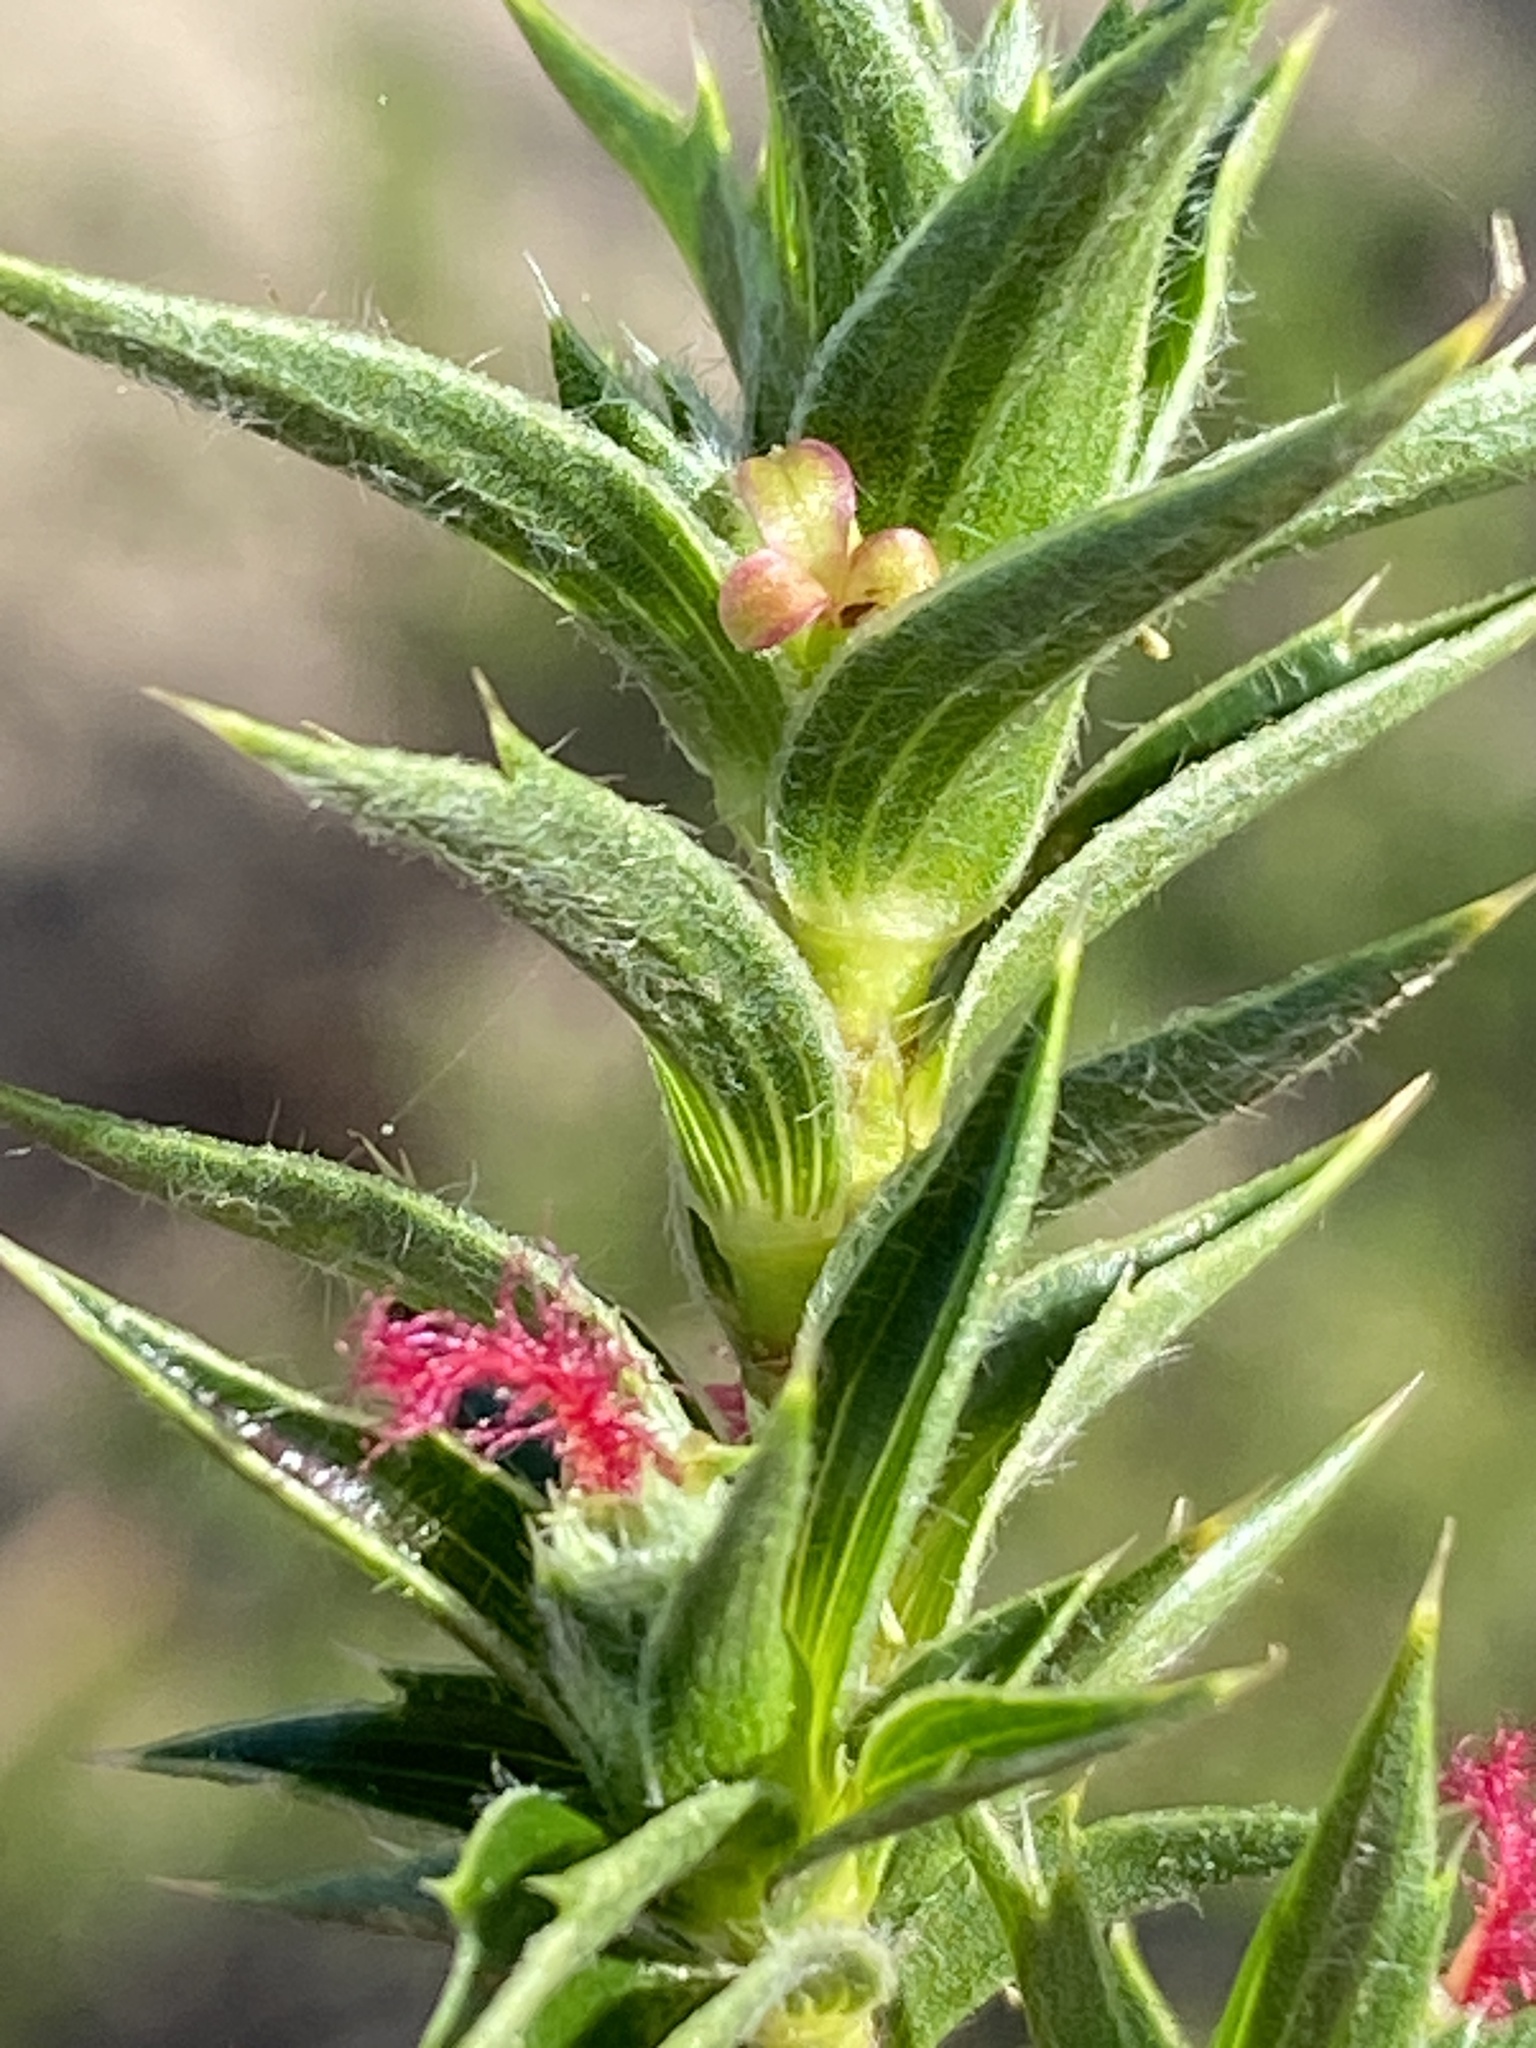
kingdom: Plantae
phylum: Tracheophyta
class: Magnoliopsida
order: Rosales
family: Rosaceae
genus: Cliffortia
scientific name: Cliffortia ruscifolia
